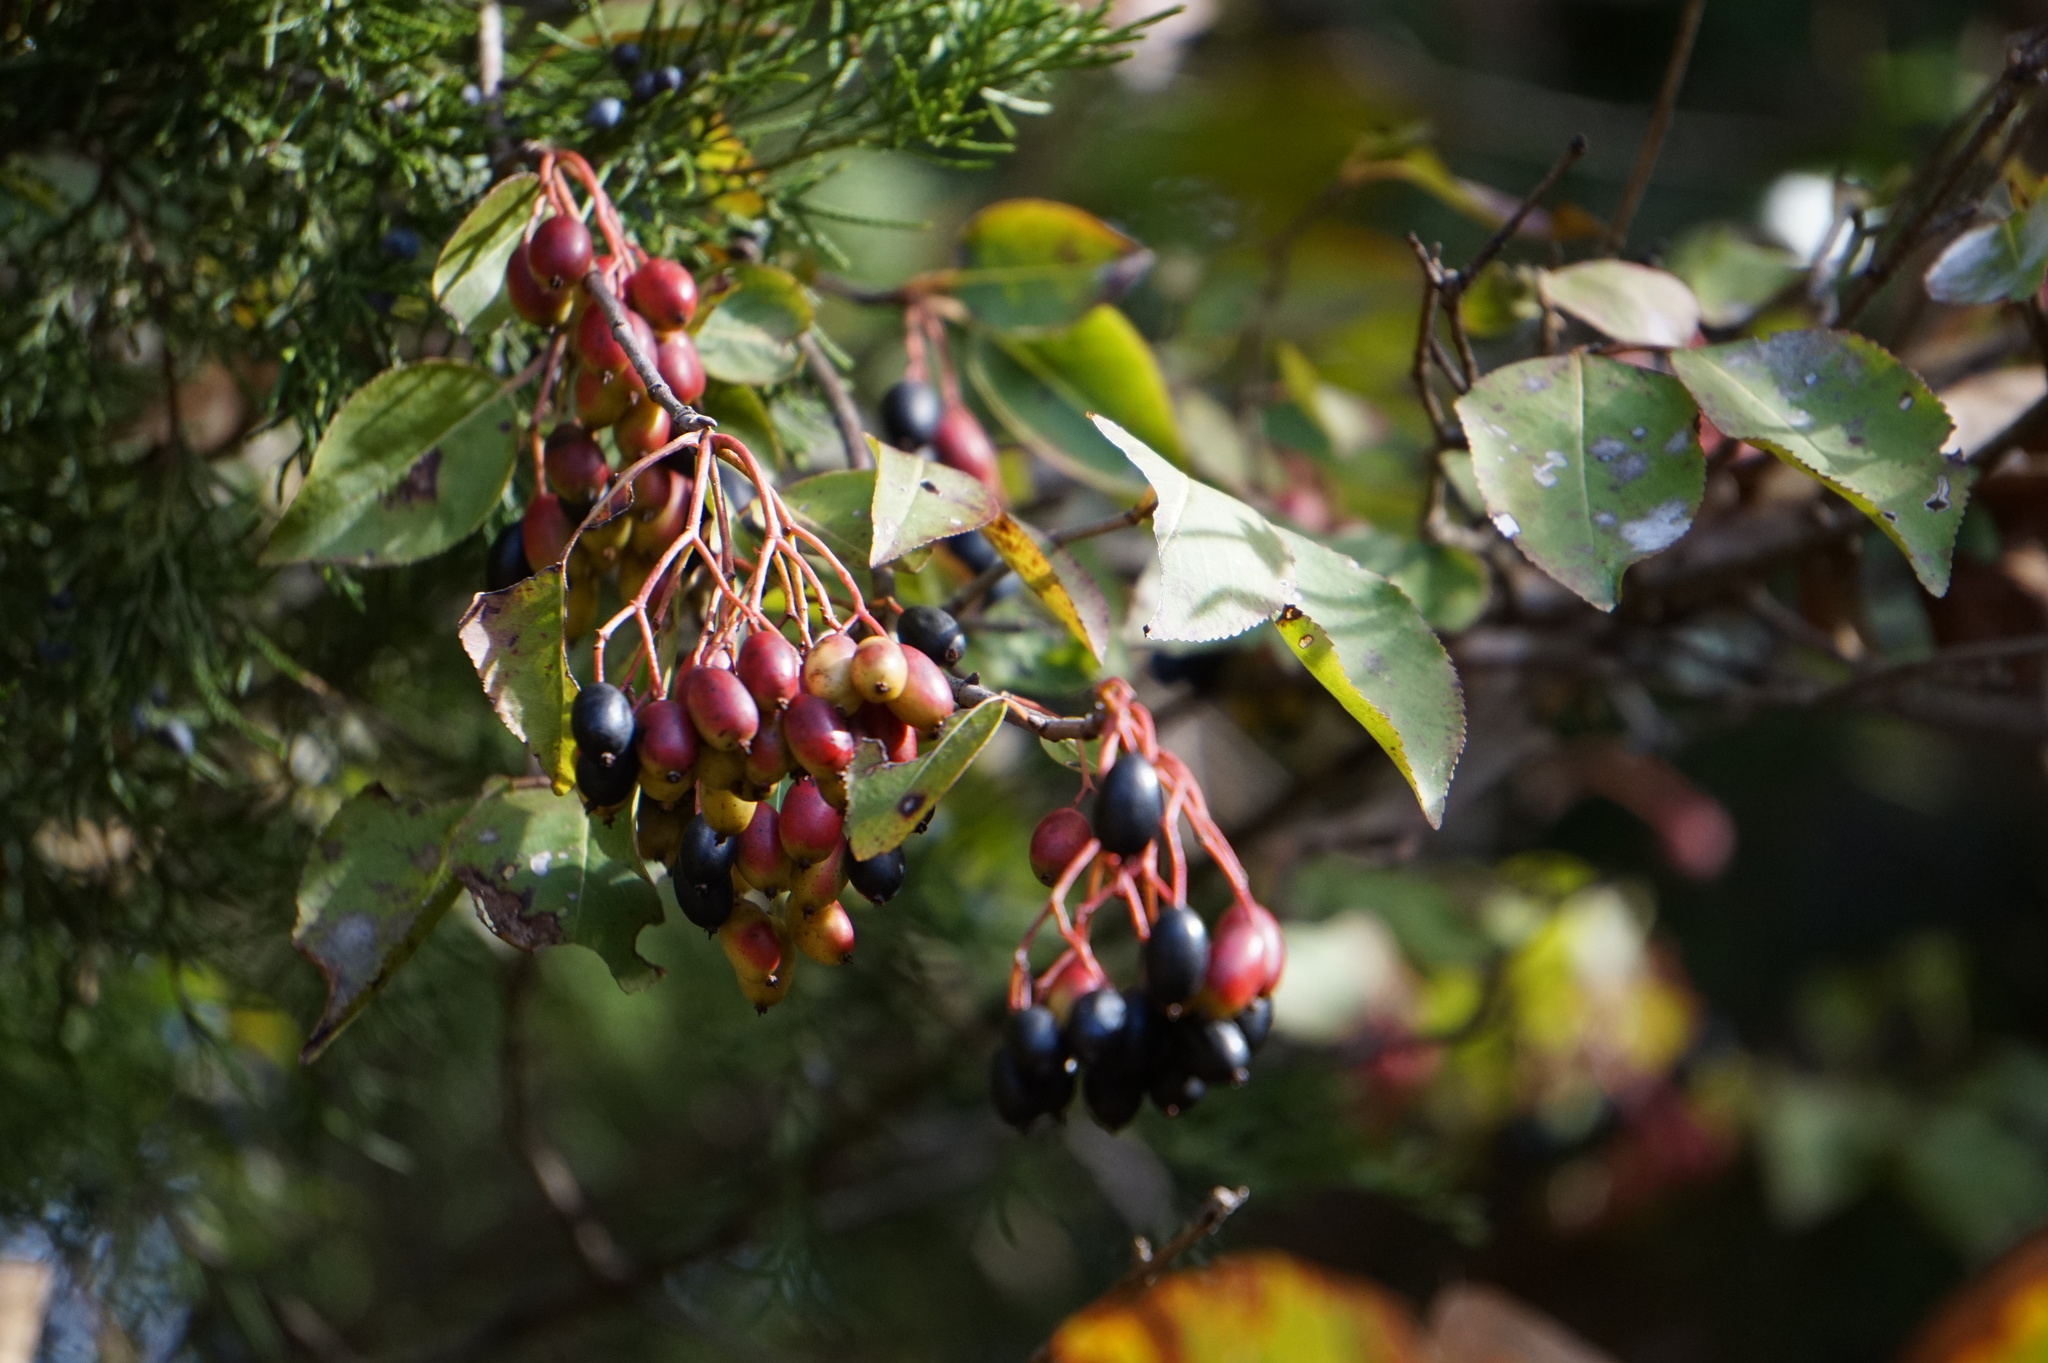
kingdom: Plantae
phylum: Tracheophyta
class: Magnoliopsida
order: Dipsacales
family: Viburnaceae
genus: Viburnum
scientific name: Viburnum prunifolium
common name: Black haw
